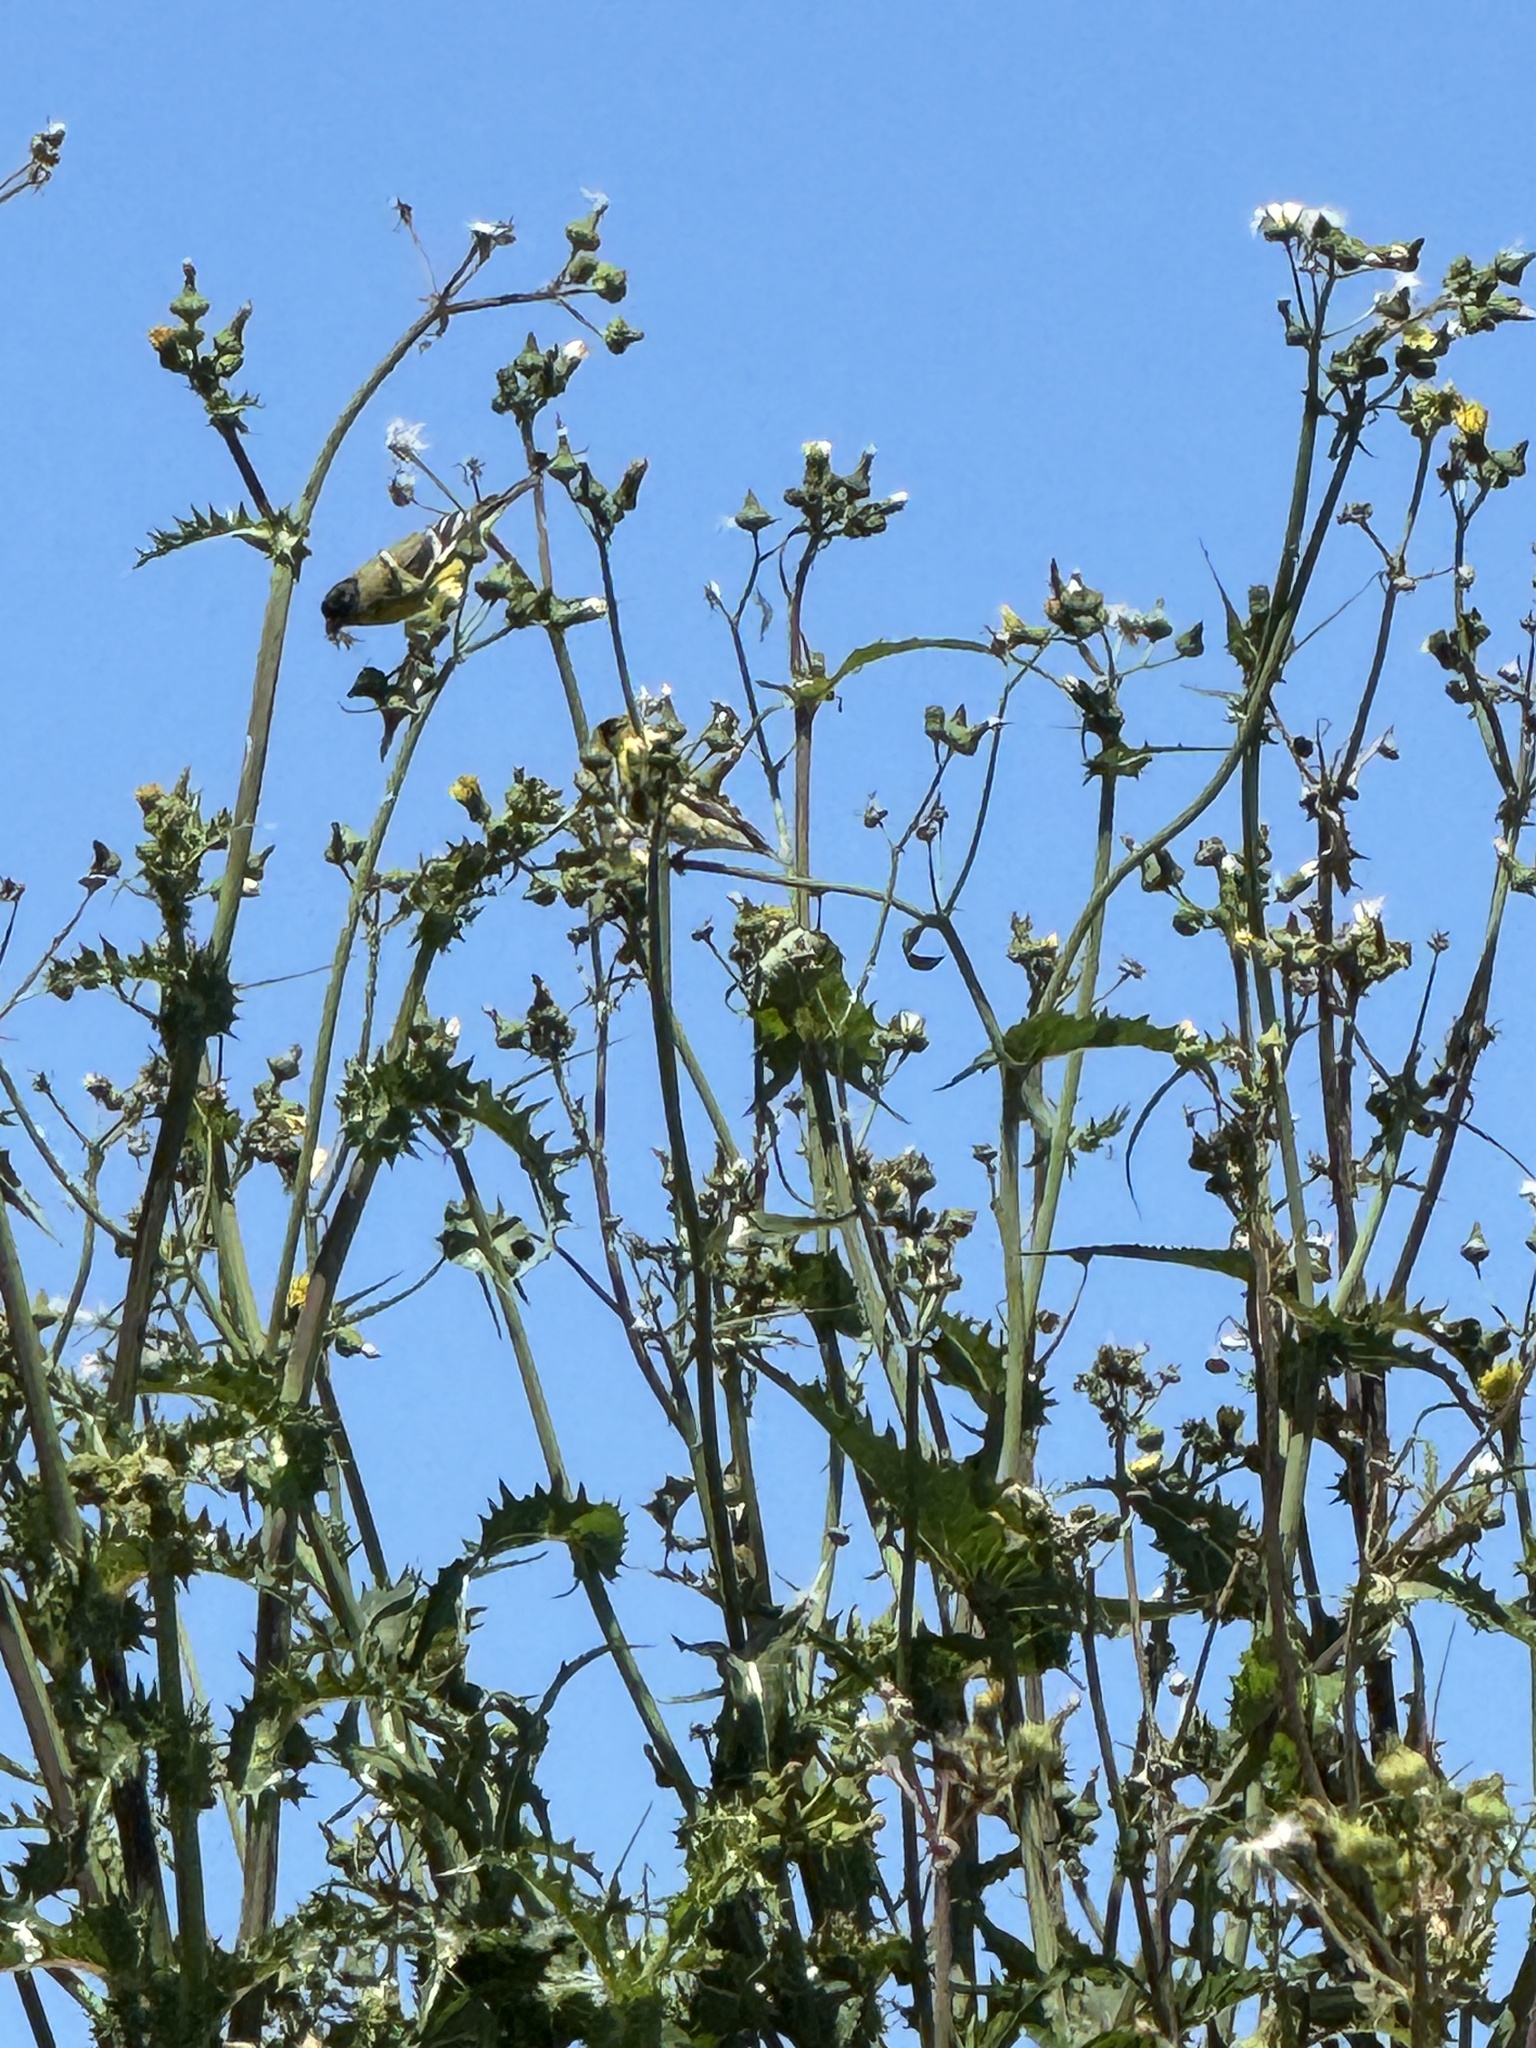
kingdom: Animalia
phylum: Chordata
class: Aves
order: Passeriformes
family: Fringillidae
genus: Spinus
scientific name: Spinus psaltria
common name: Lesser goldfinch
